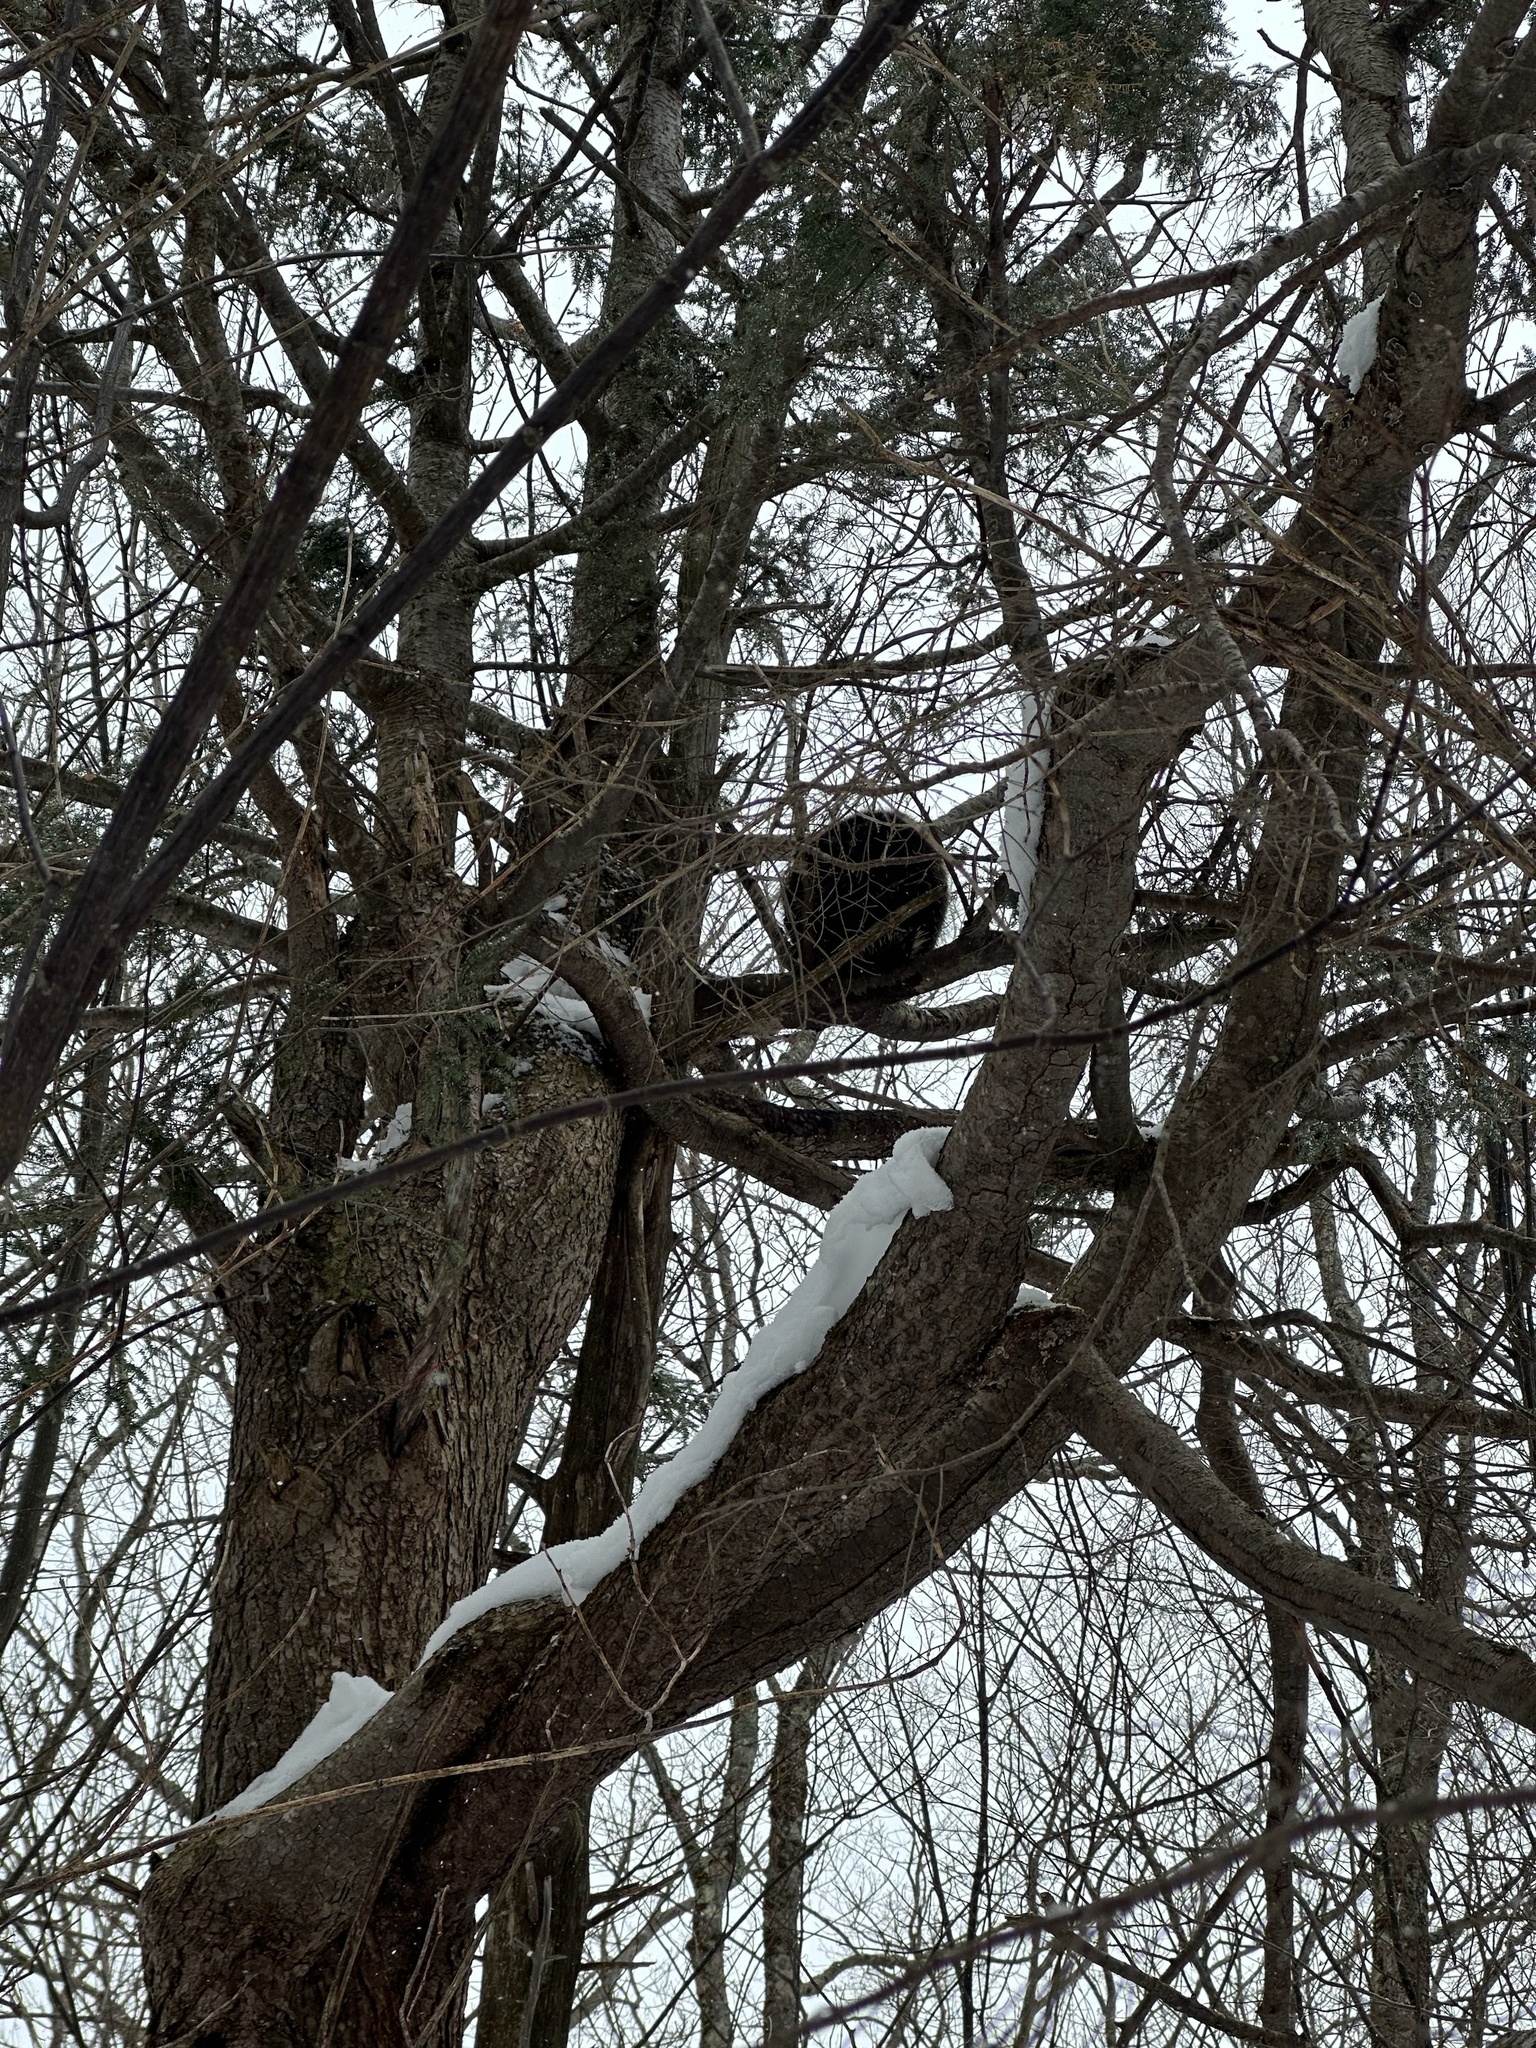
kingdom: Animalia
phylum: Chordata
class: Mammalia
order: Rodentia
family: Erethizontidae
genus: Erethizon
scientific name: Erethizon dorsatus
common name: North american porcupine
